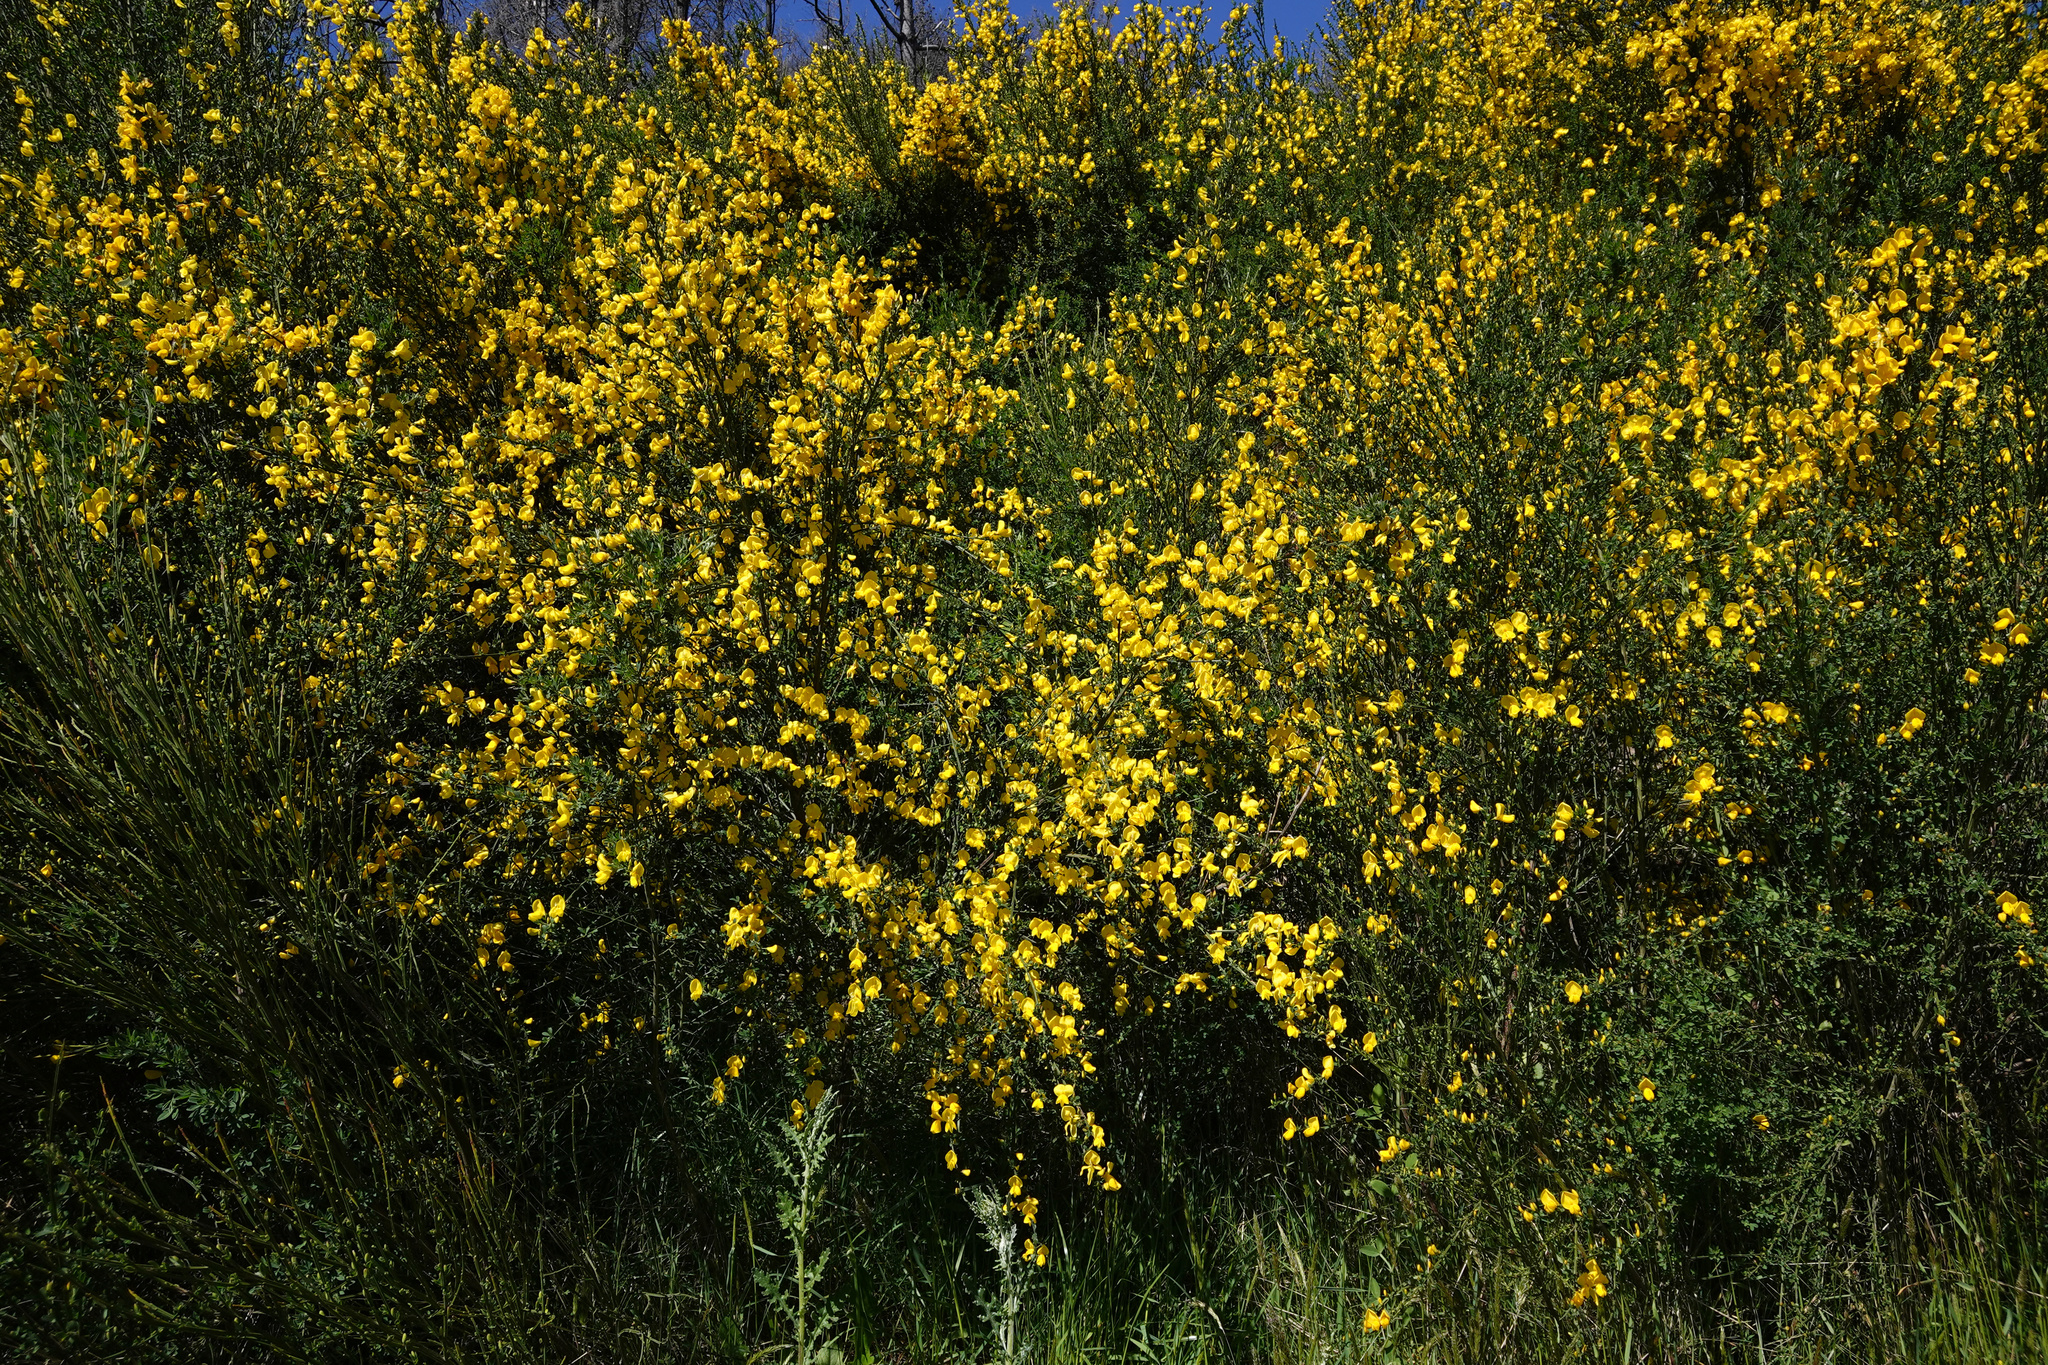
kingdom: Plantae
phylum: Tracheophyta
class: Magnoliopsida
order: Fabales
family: Fabaceae
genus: Cytisus
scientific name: Cytisus scoparius
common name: Scotch broom
